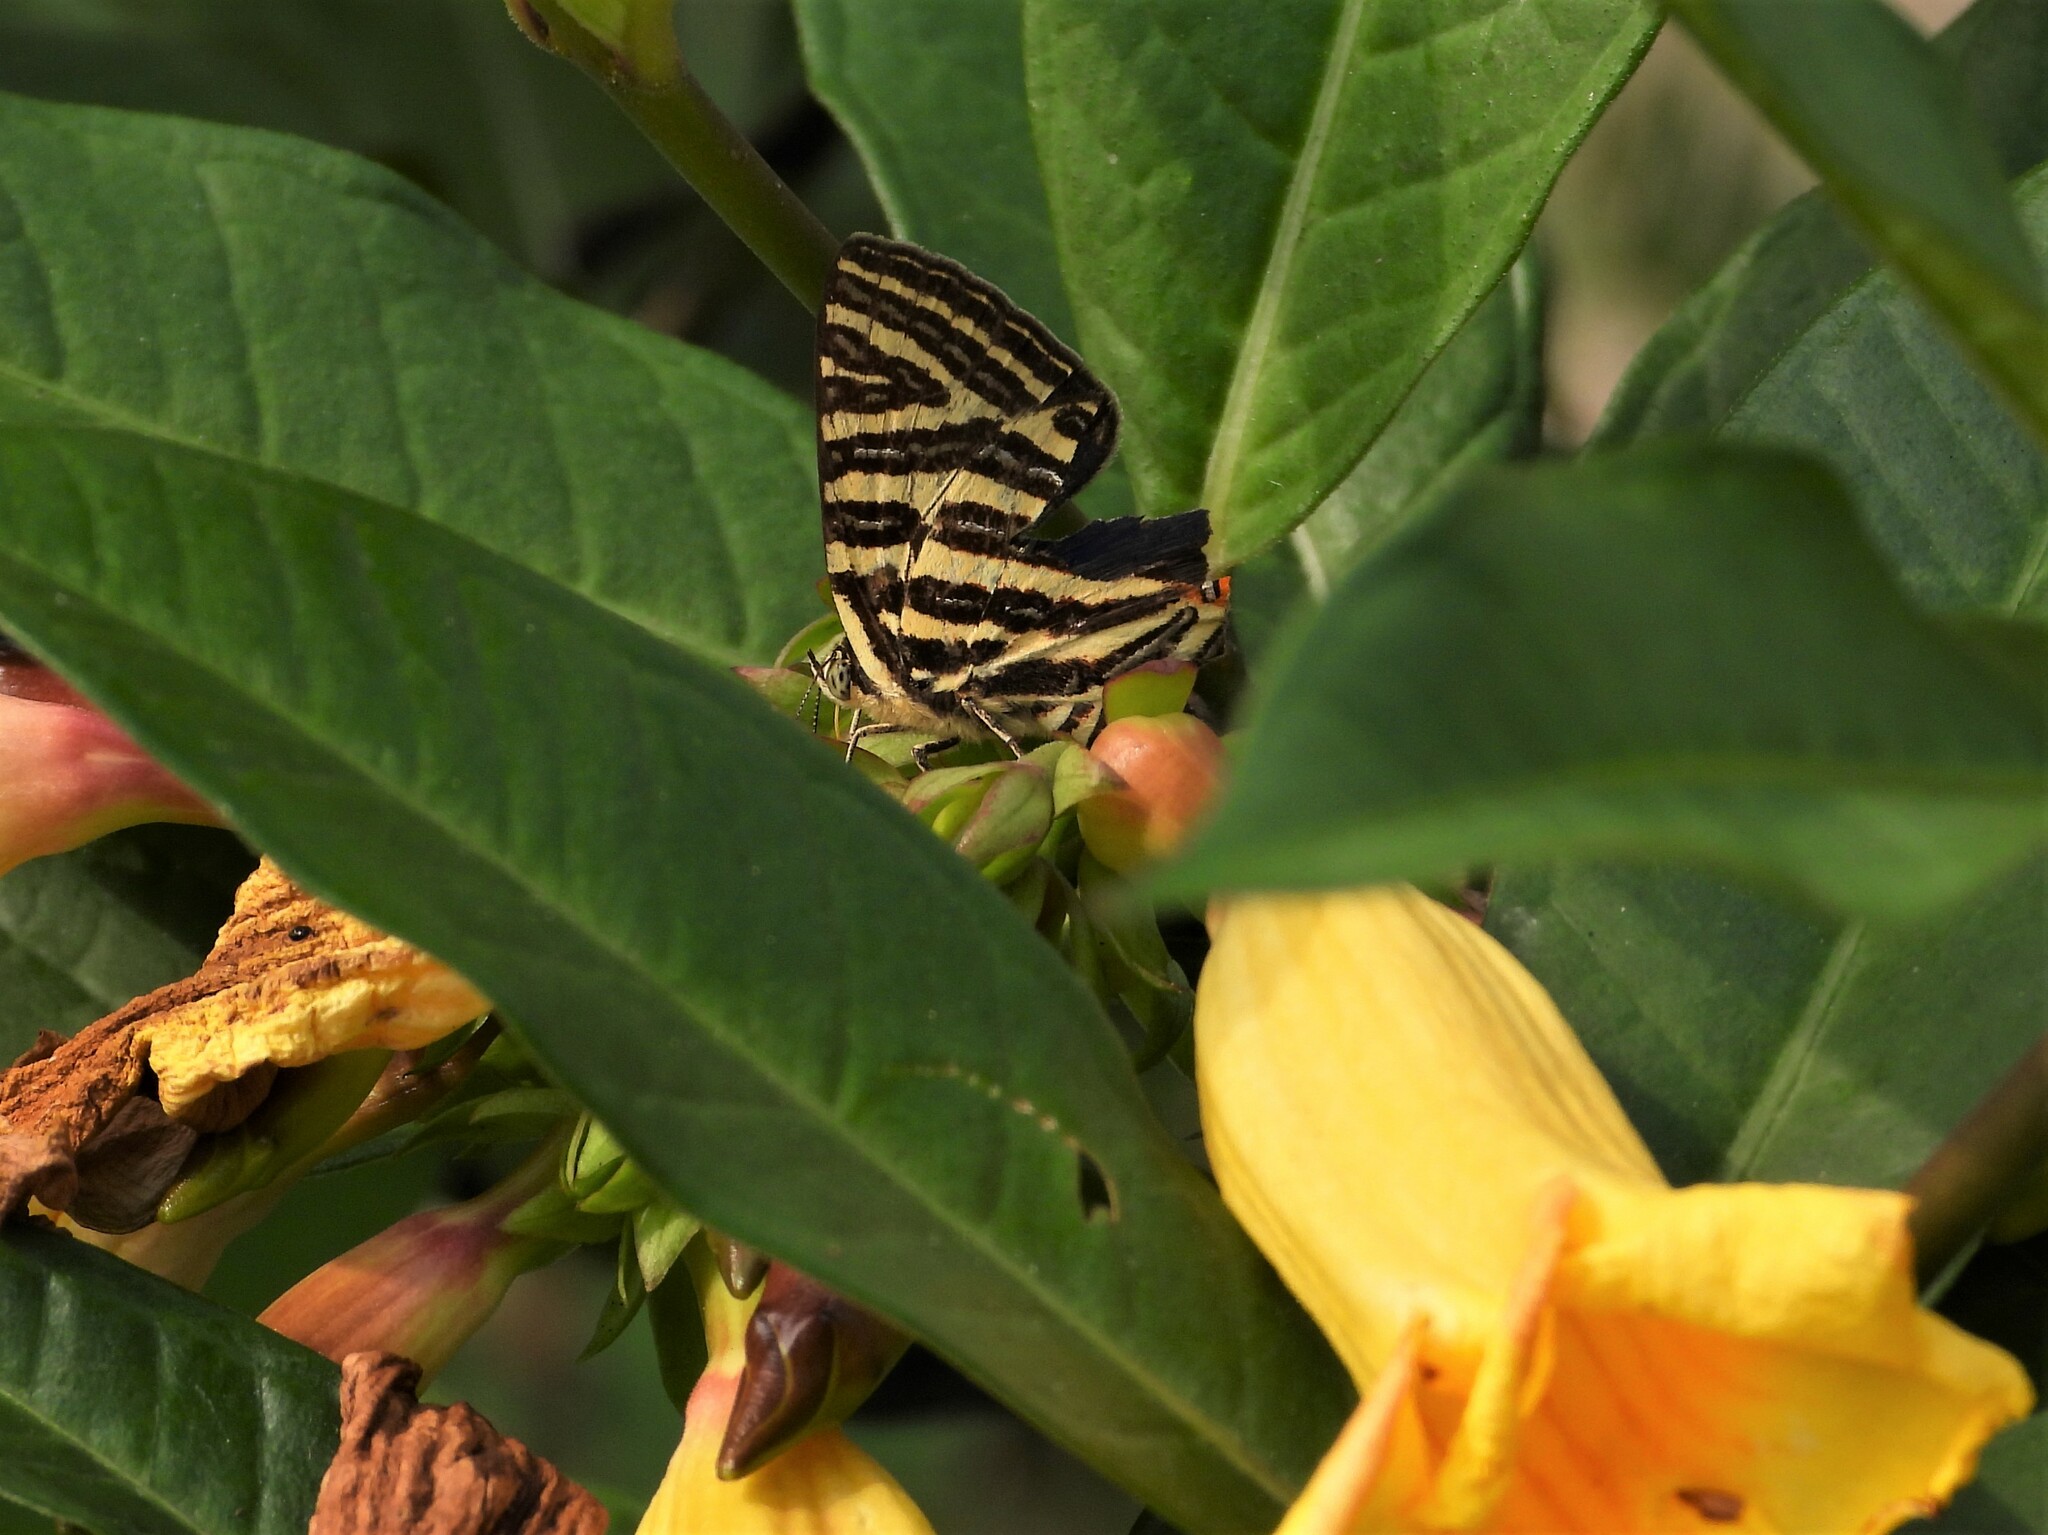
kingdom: Animalia
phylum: Arthropoda
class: Insecta
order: Lepidoptera
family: Lycaenidae
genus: Cigaritis
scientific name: Cigaritis lohita
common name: Long-banded silverline
